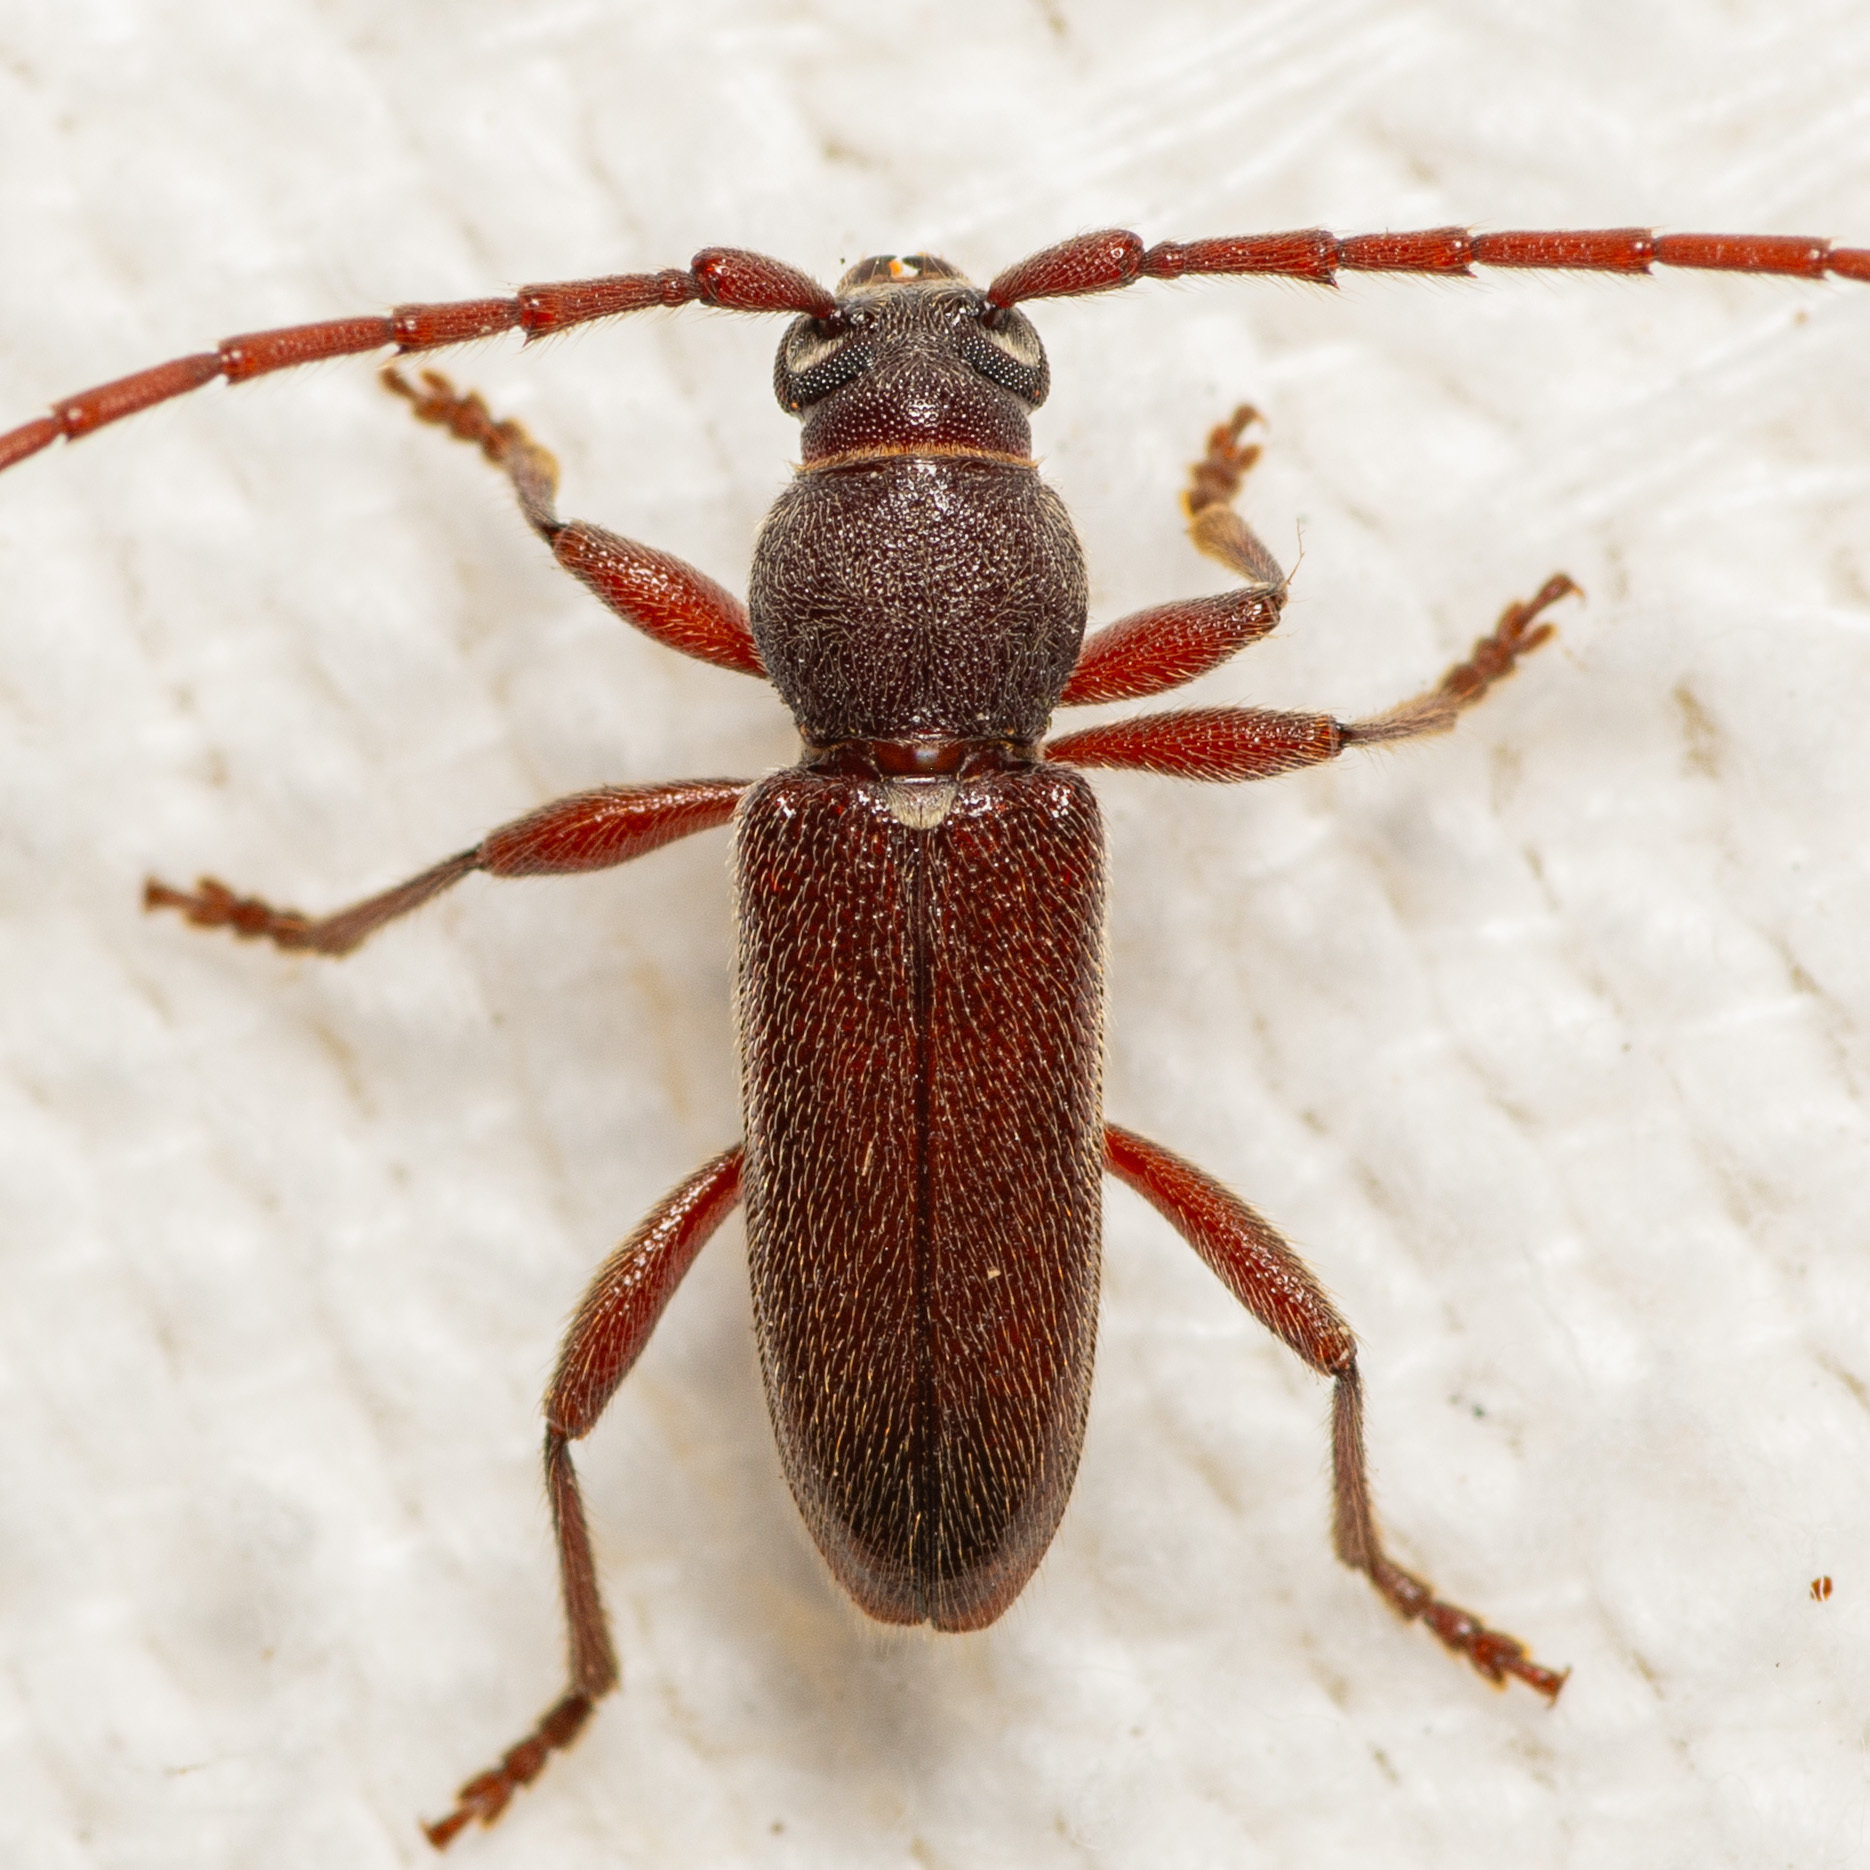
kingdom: Animalia
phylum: Arthropoda
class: Insecta
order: Coleoptera
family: Cerambycidae
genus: Anelaphus
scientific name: Anelaphus moestus
